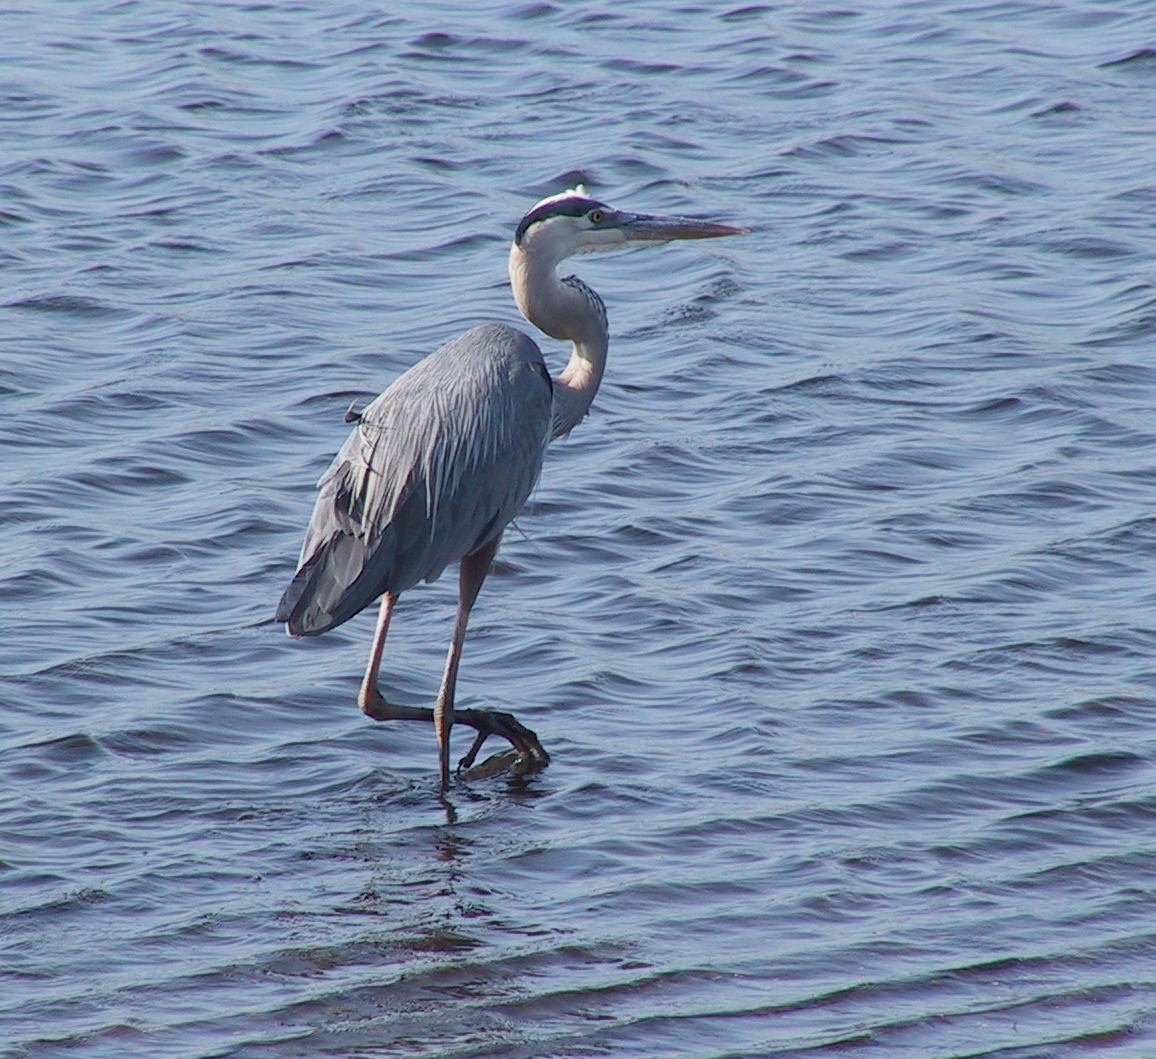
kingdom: Animalia
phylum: Chordata
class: Aves
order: Pelecaniformes
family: Ardeidae
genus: Ardea
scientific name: Ardea herodias
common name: Great blue heron
